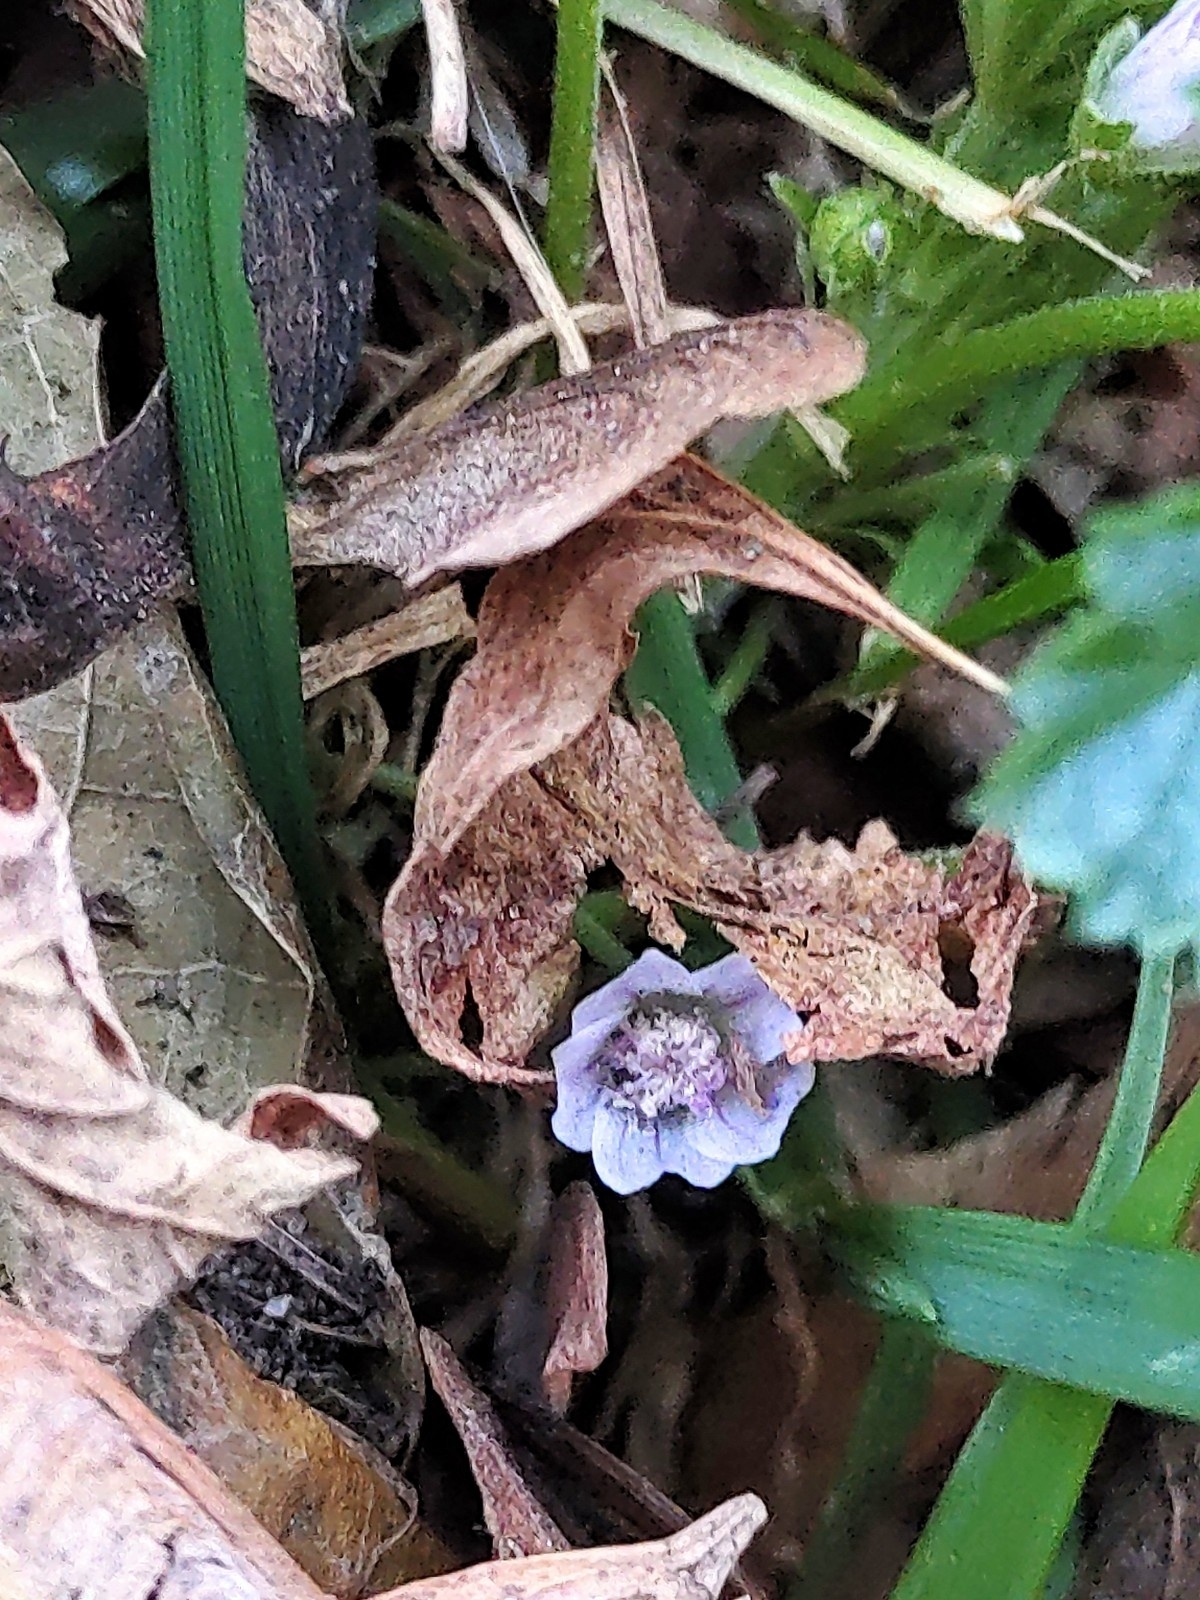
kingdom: Plantae
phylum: Tracheophyta
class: Magnoliopsida
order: Malvales
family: Malvaceae
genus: Malva
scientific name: Malva neglecta
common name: Common mallow
